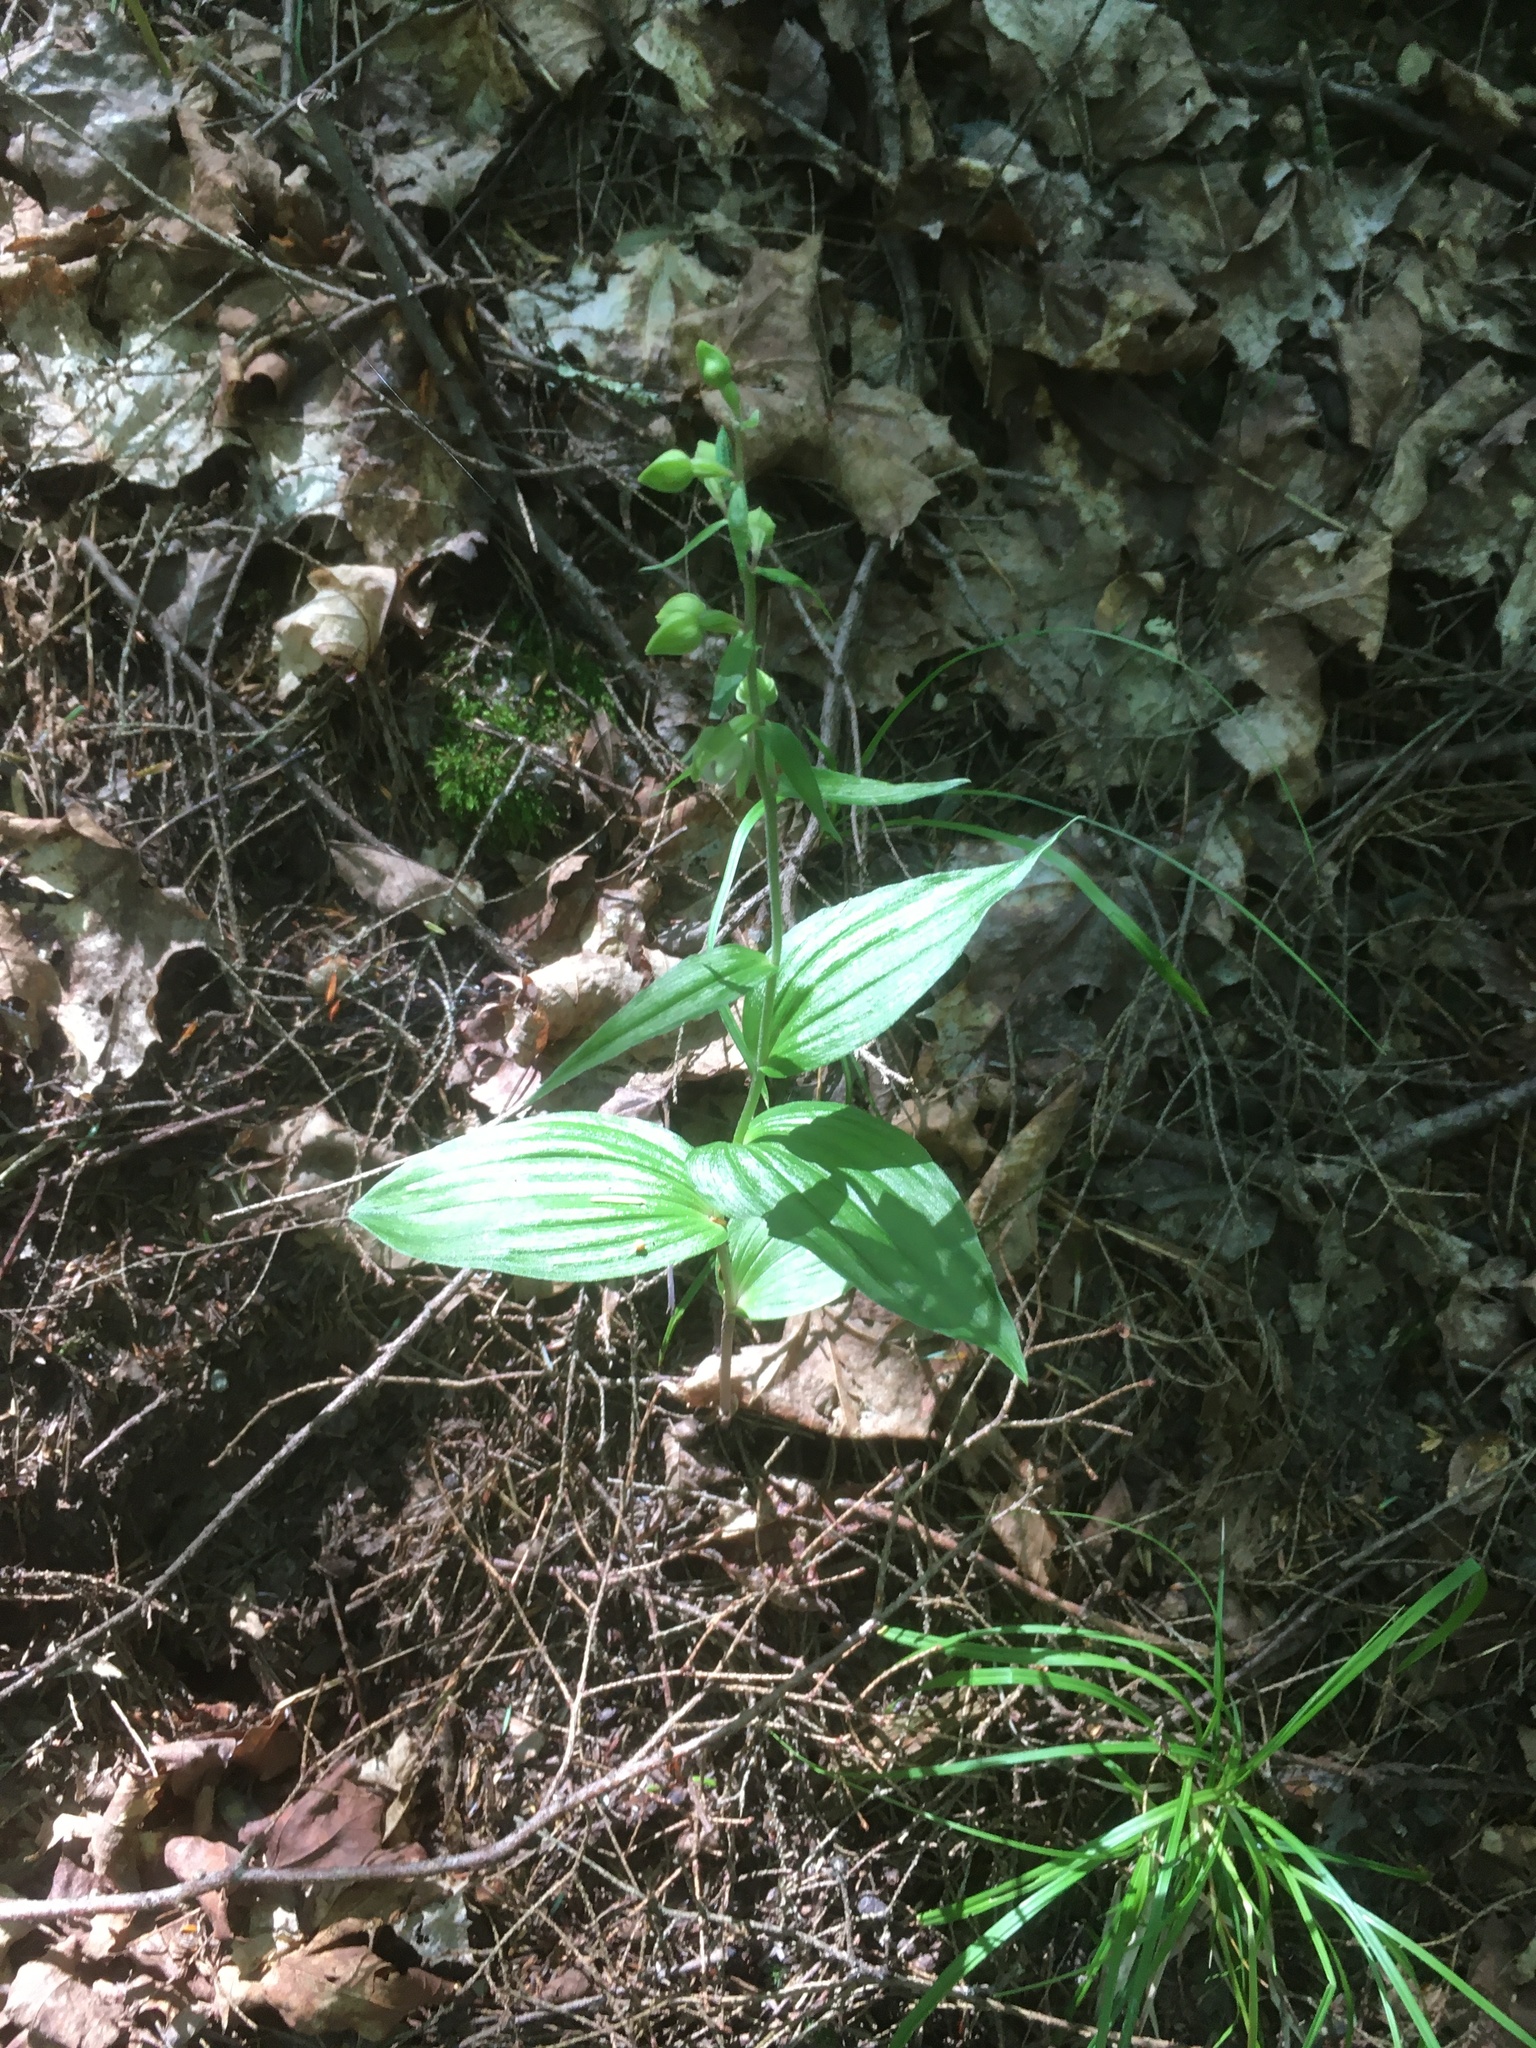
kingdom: Plantae
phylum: Tracheophyta
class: Liliopsida
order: Asparagales
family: Orchidaceae
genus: Epipactis
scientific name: Epipactis helleborine
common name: Broad-leaved helleborine
